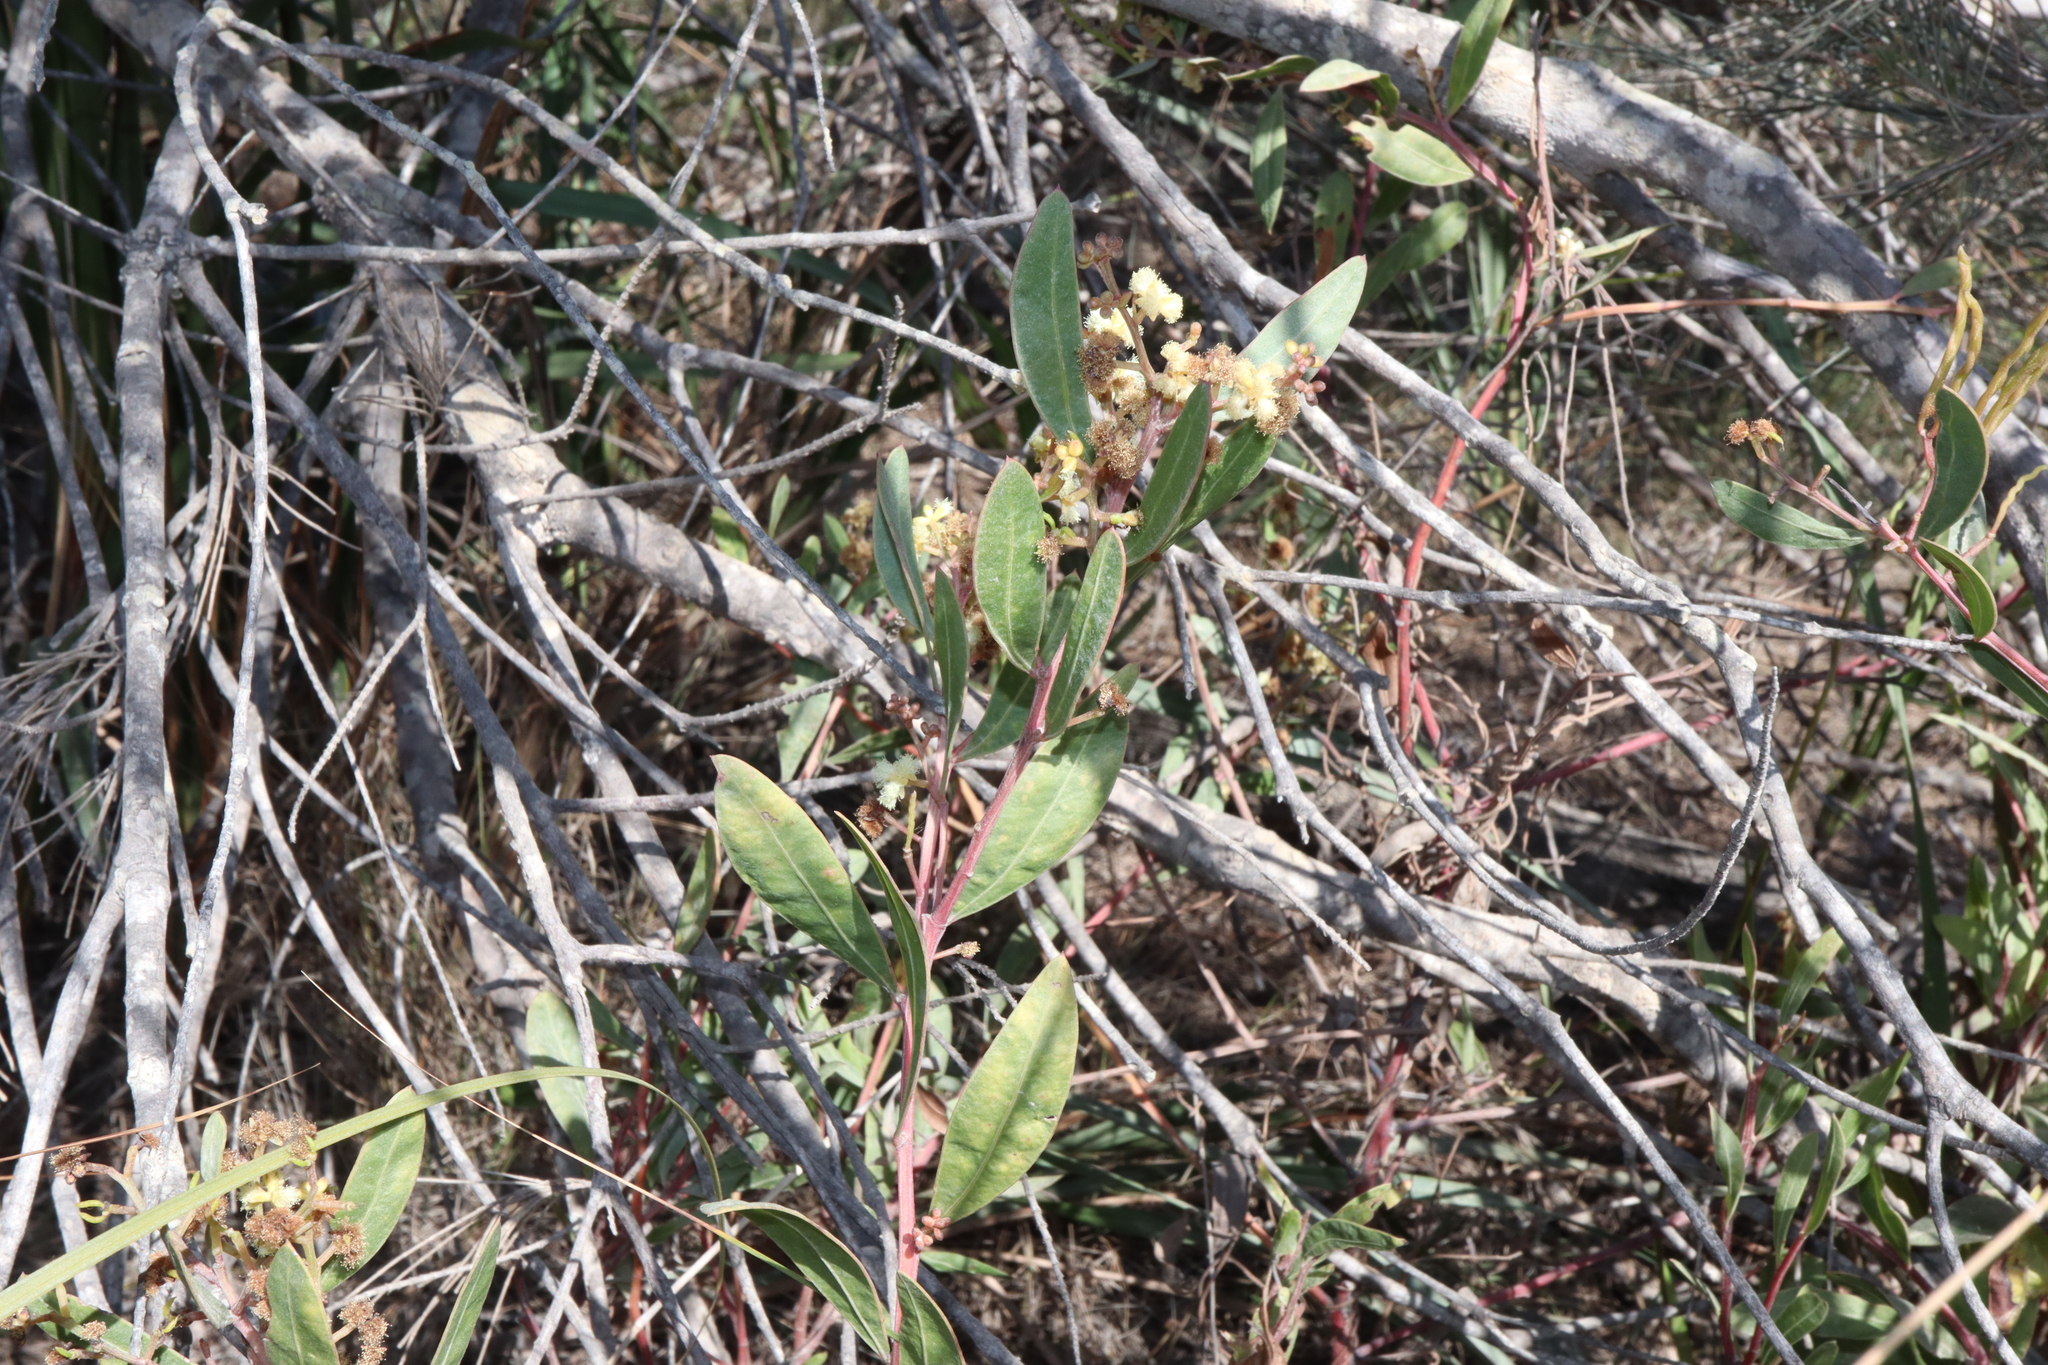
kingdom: Plantae
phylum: Tracheophyta
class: Magnoliopsida
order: Fabales
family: Fabaceae
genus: Acacia
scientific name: Acacia myrtifolia
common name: Myrtle wattle
